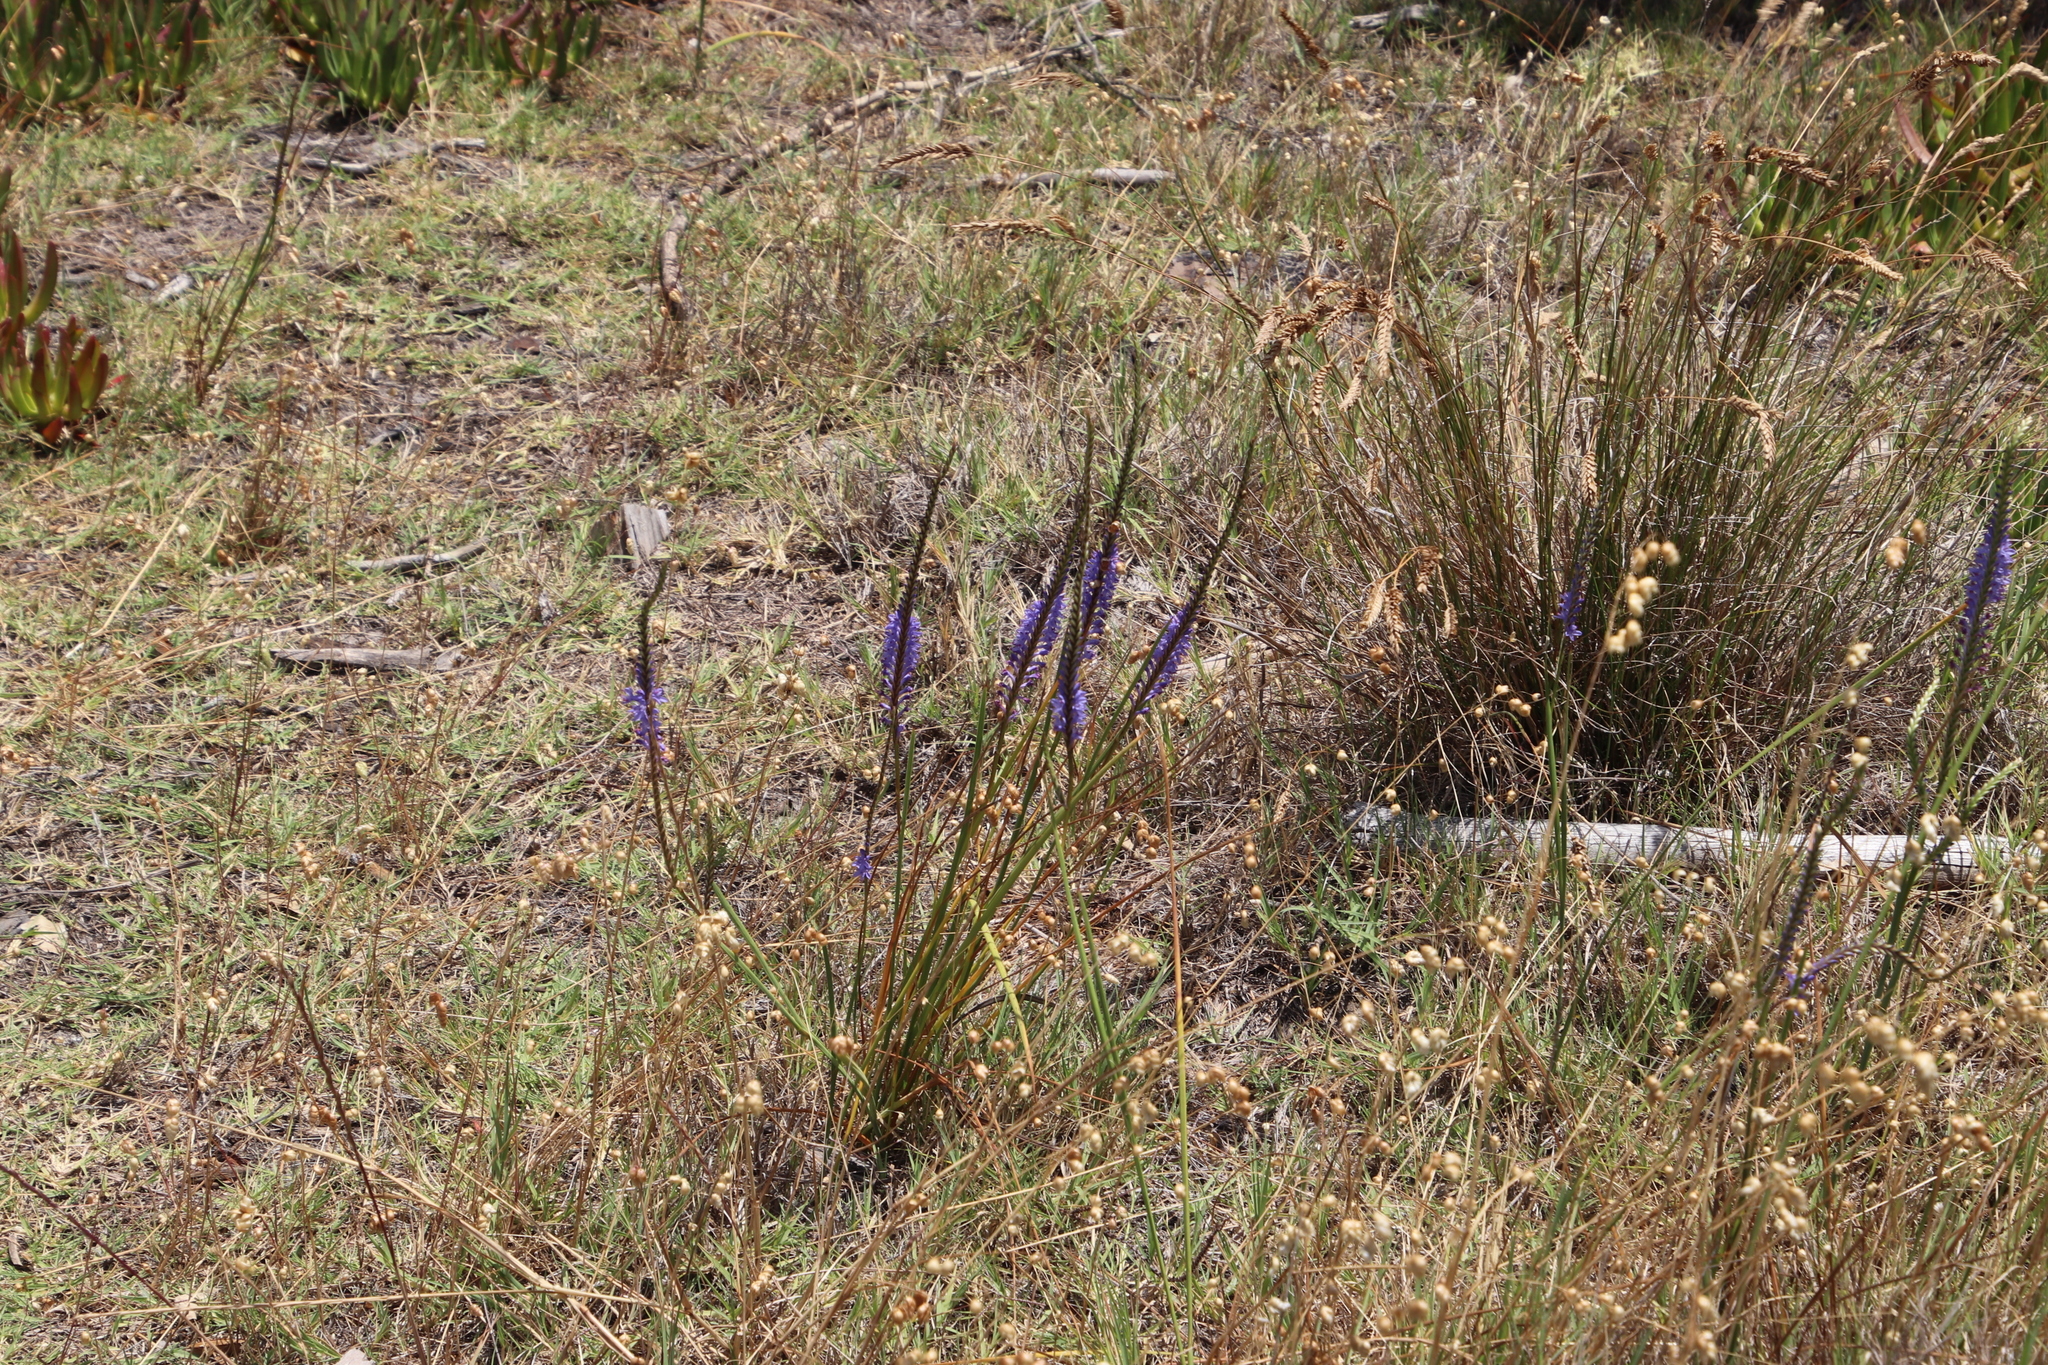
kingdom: Plantae
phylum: Tracheophyta
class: Liliopsida
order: Asparagales
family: Iridaceae
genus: Micranthus
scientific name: Micranthus alopecuroides
